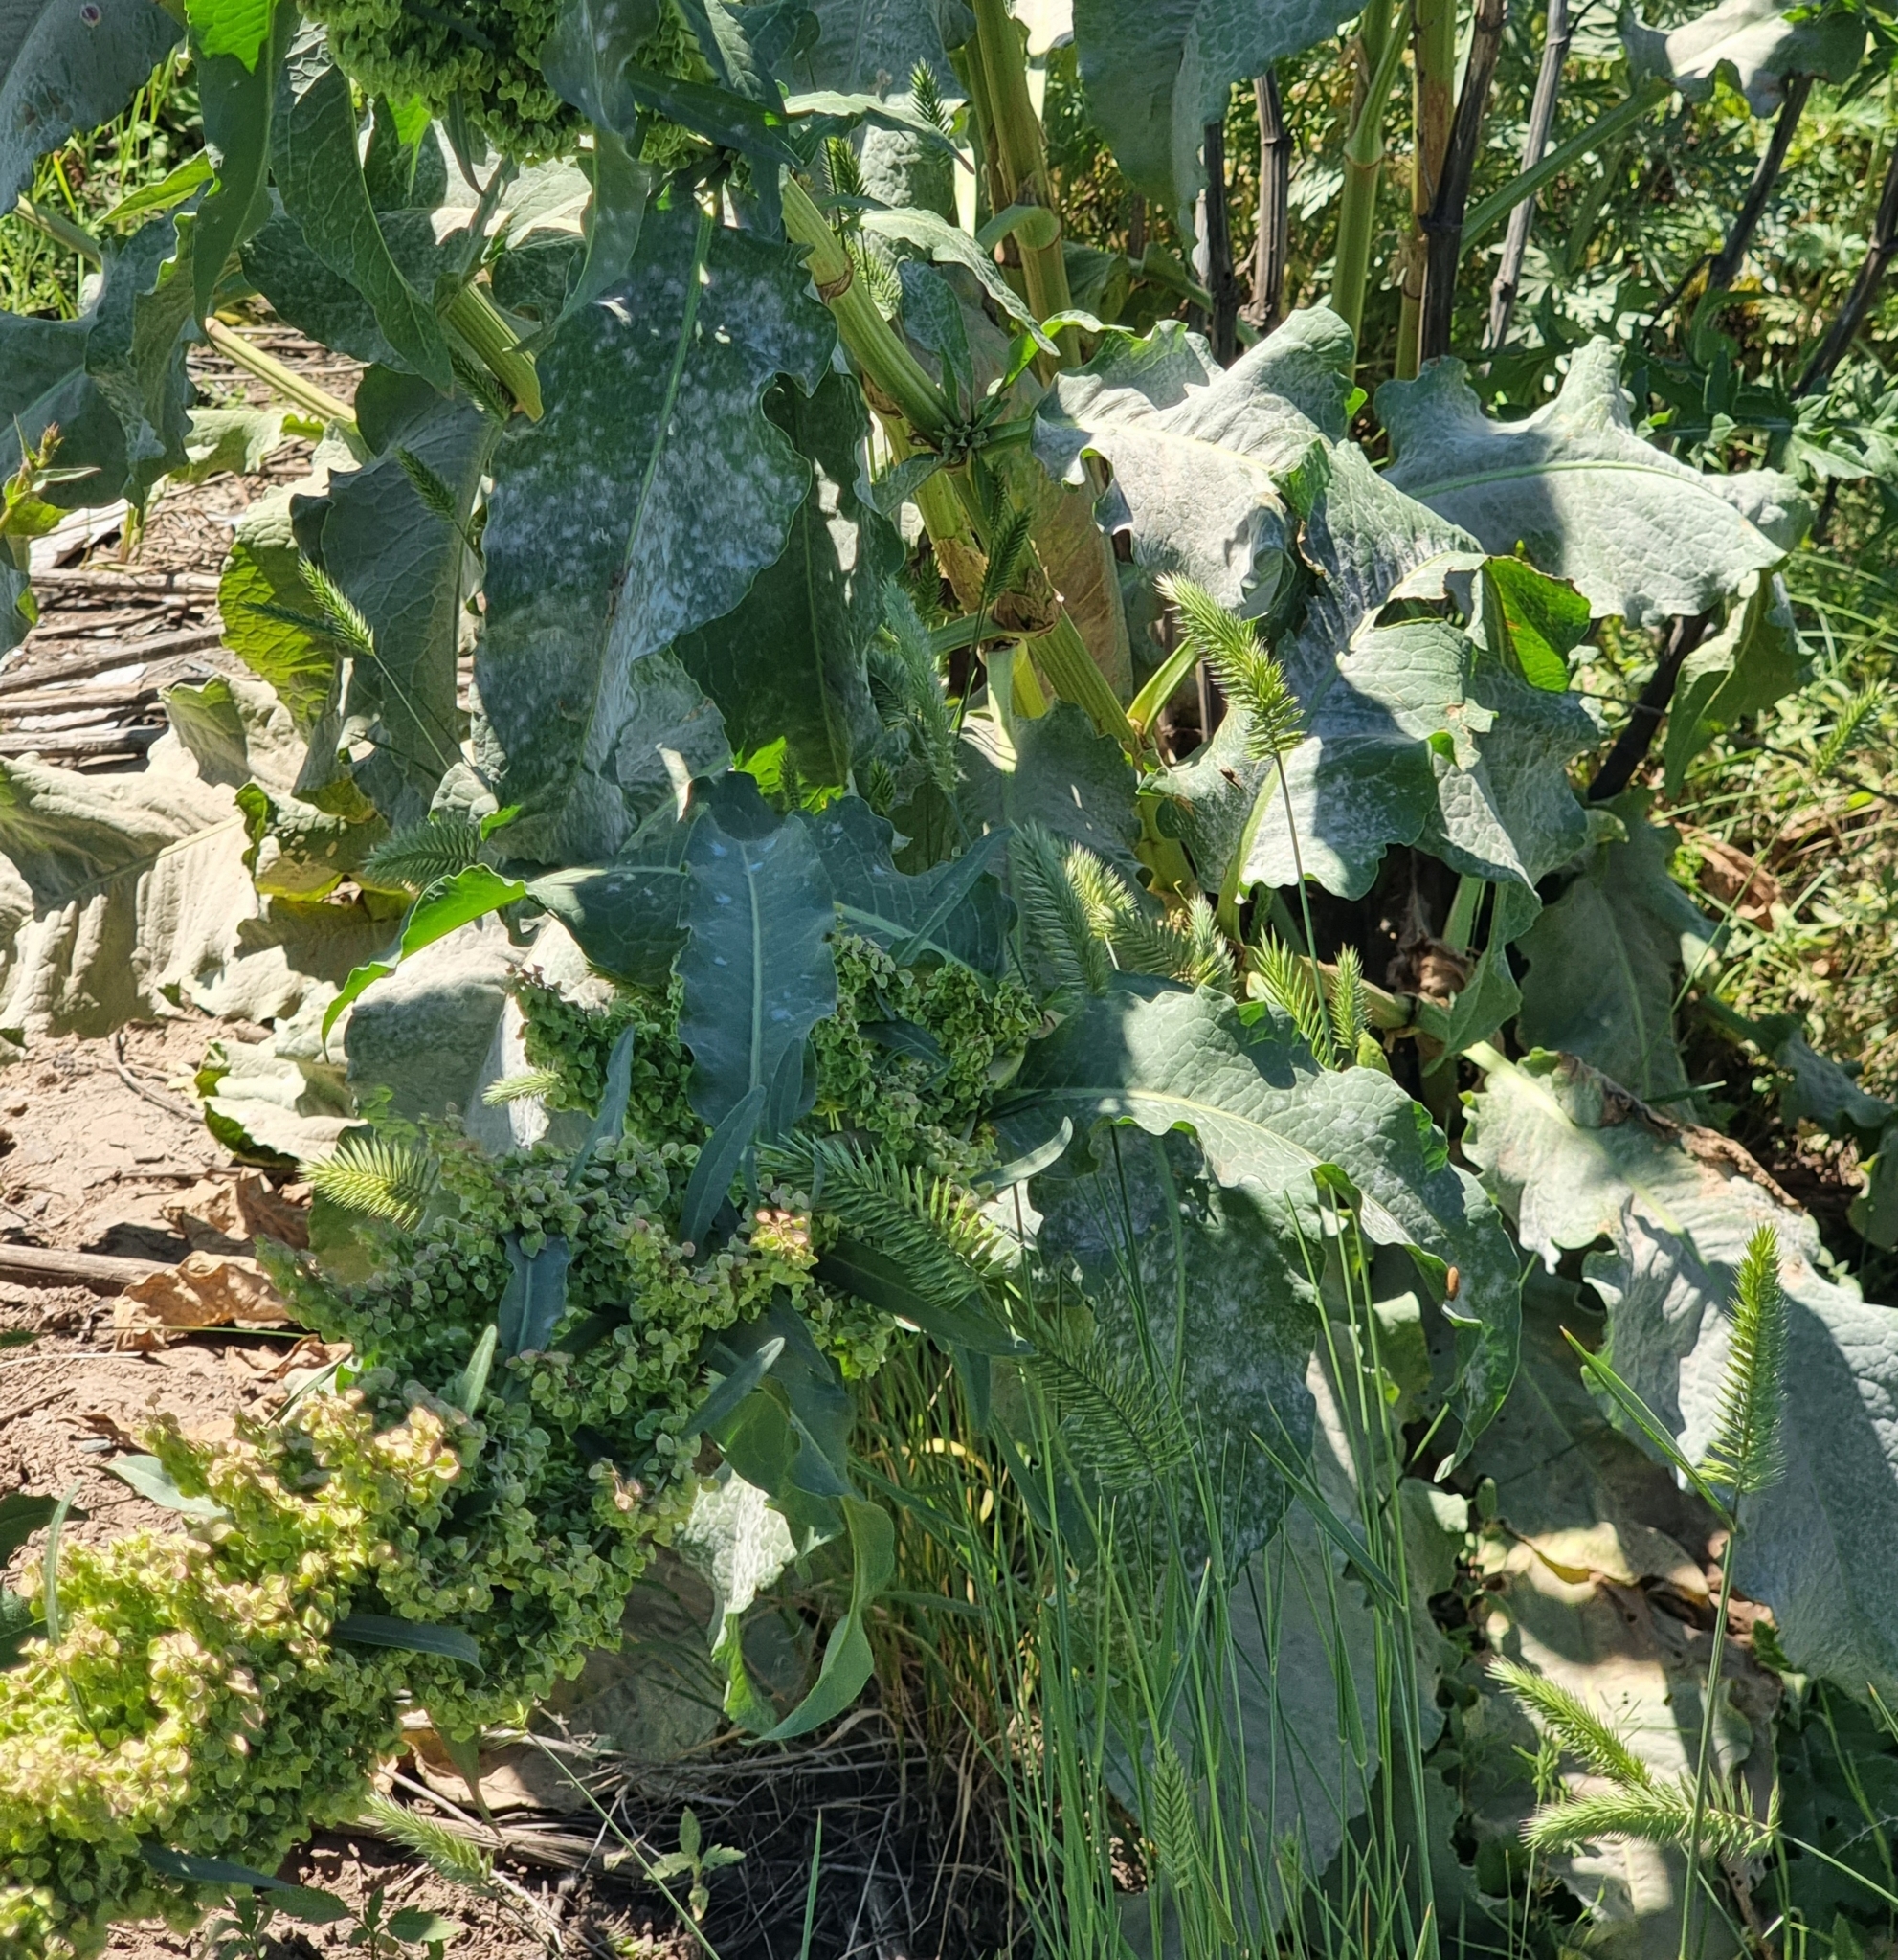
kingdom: Plantae
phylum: Tracheophyta
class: Magnoliopsida
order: Caryophyllales
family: Polygonaceae
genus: Rumex
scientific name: Rumex patientia
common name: Patience dock
